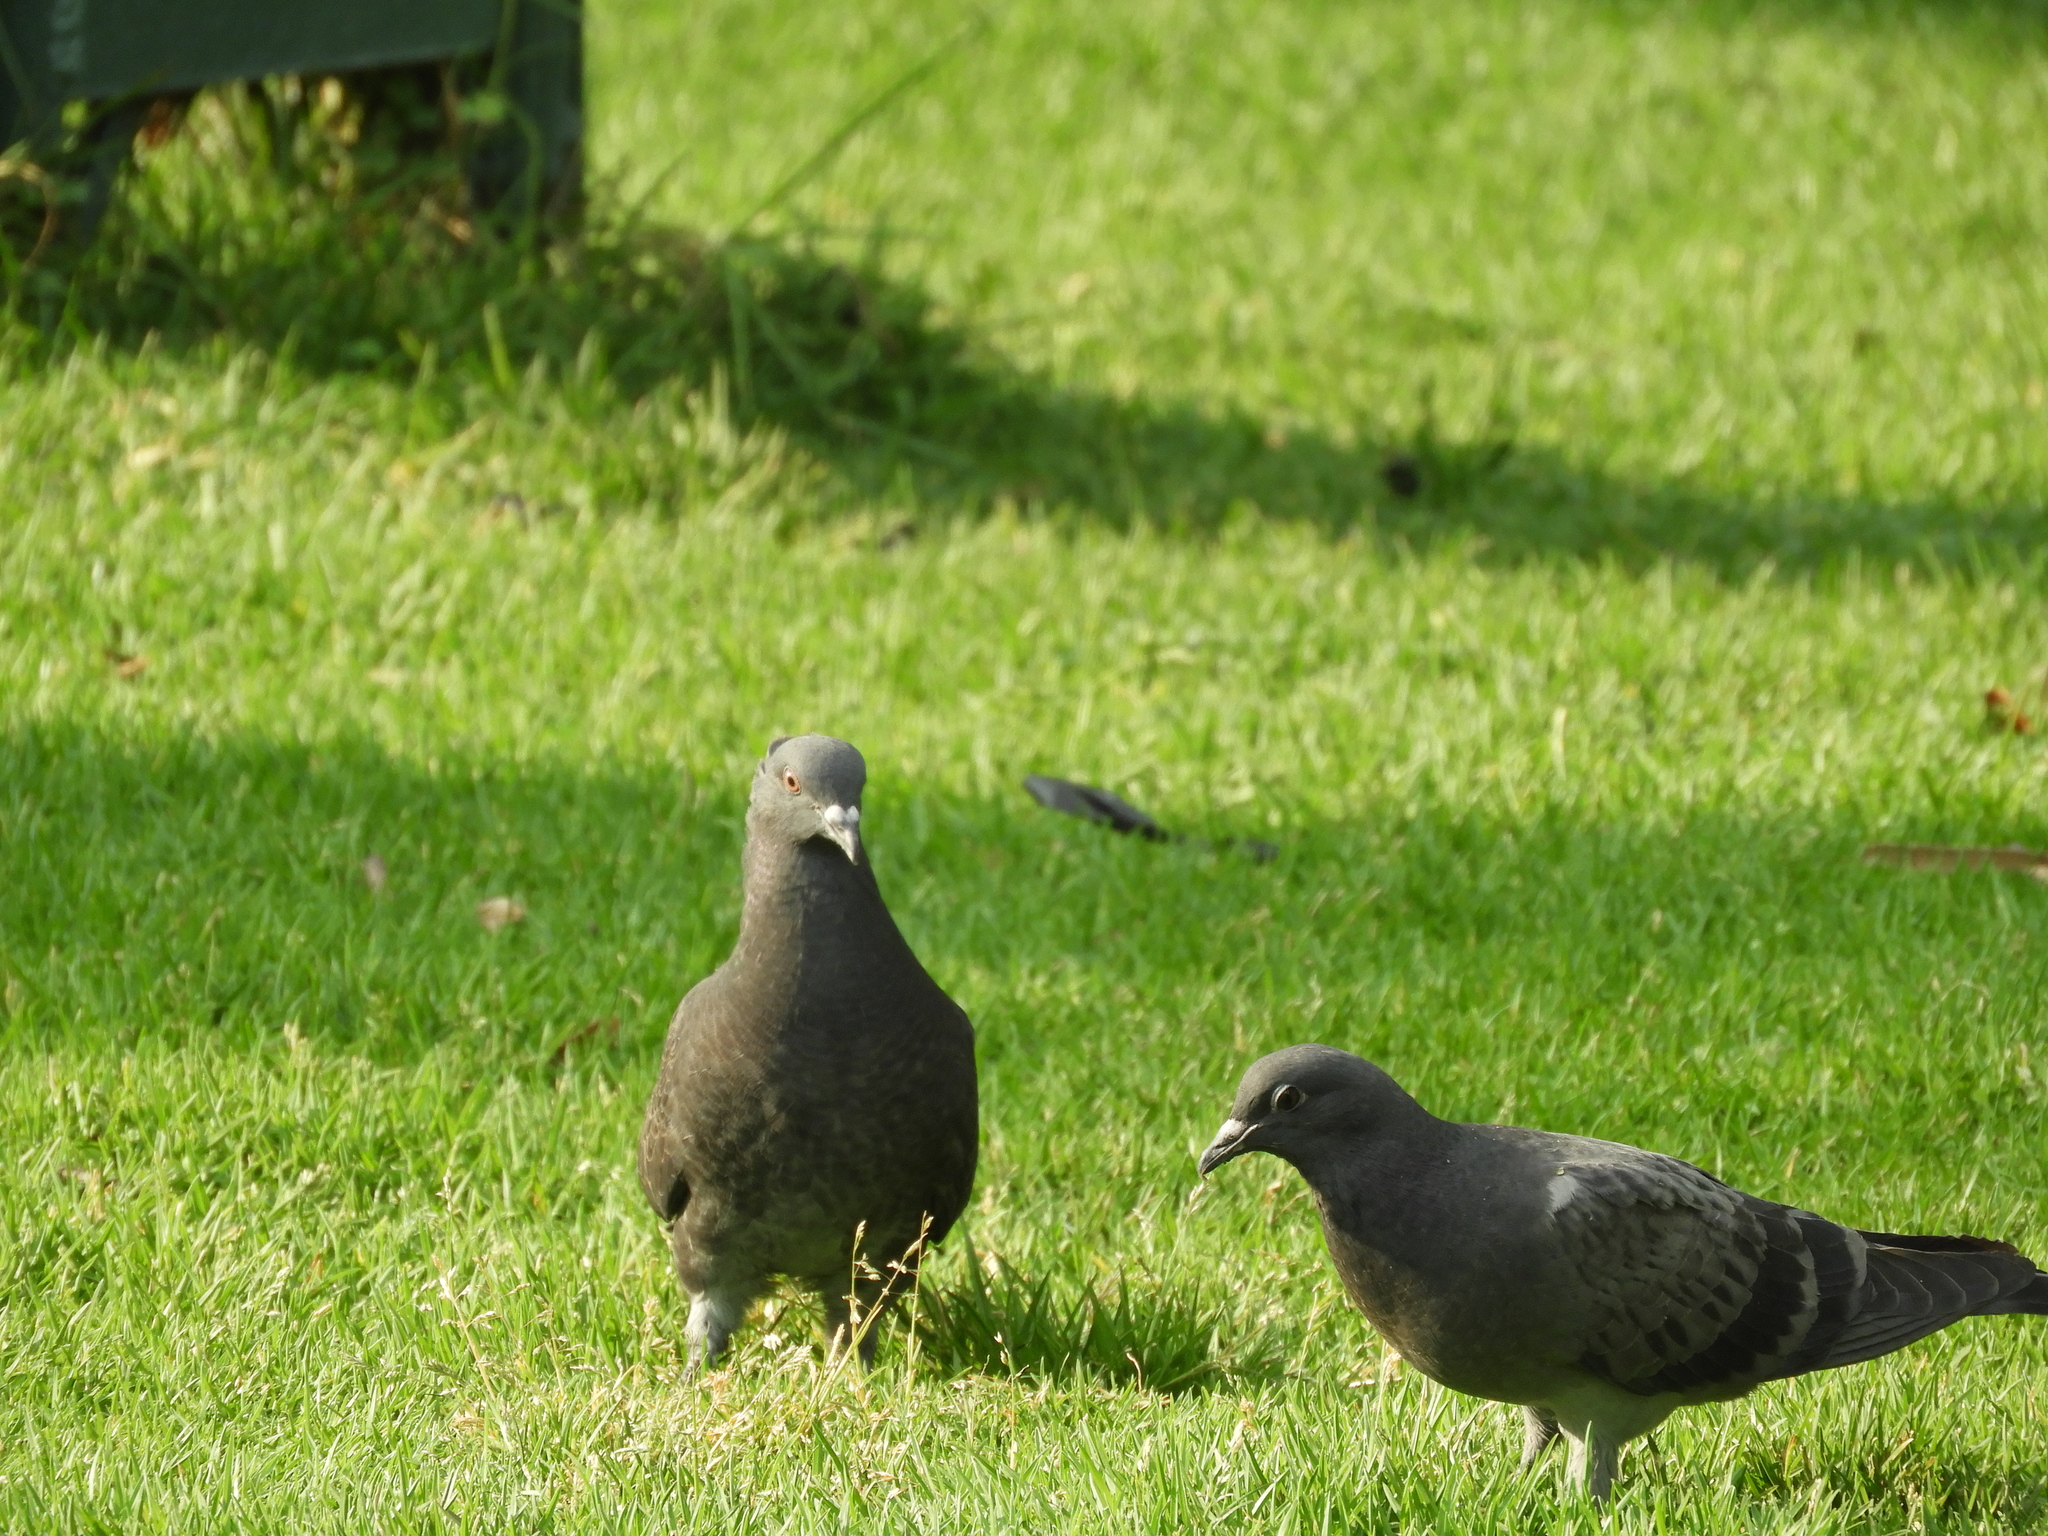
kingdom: Animalia
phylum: Chordata
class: Aves
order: Columbiformes
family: Columbidae
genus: Columba
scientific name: Columba livia
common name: Rock pigeon
